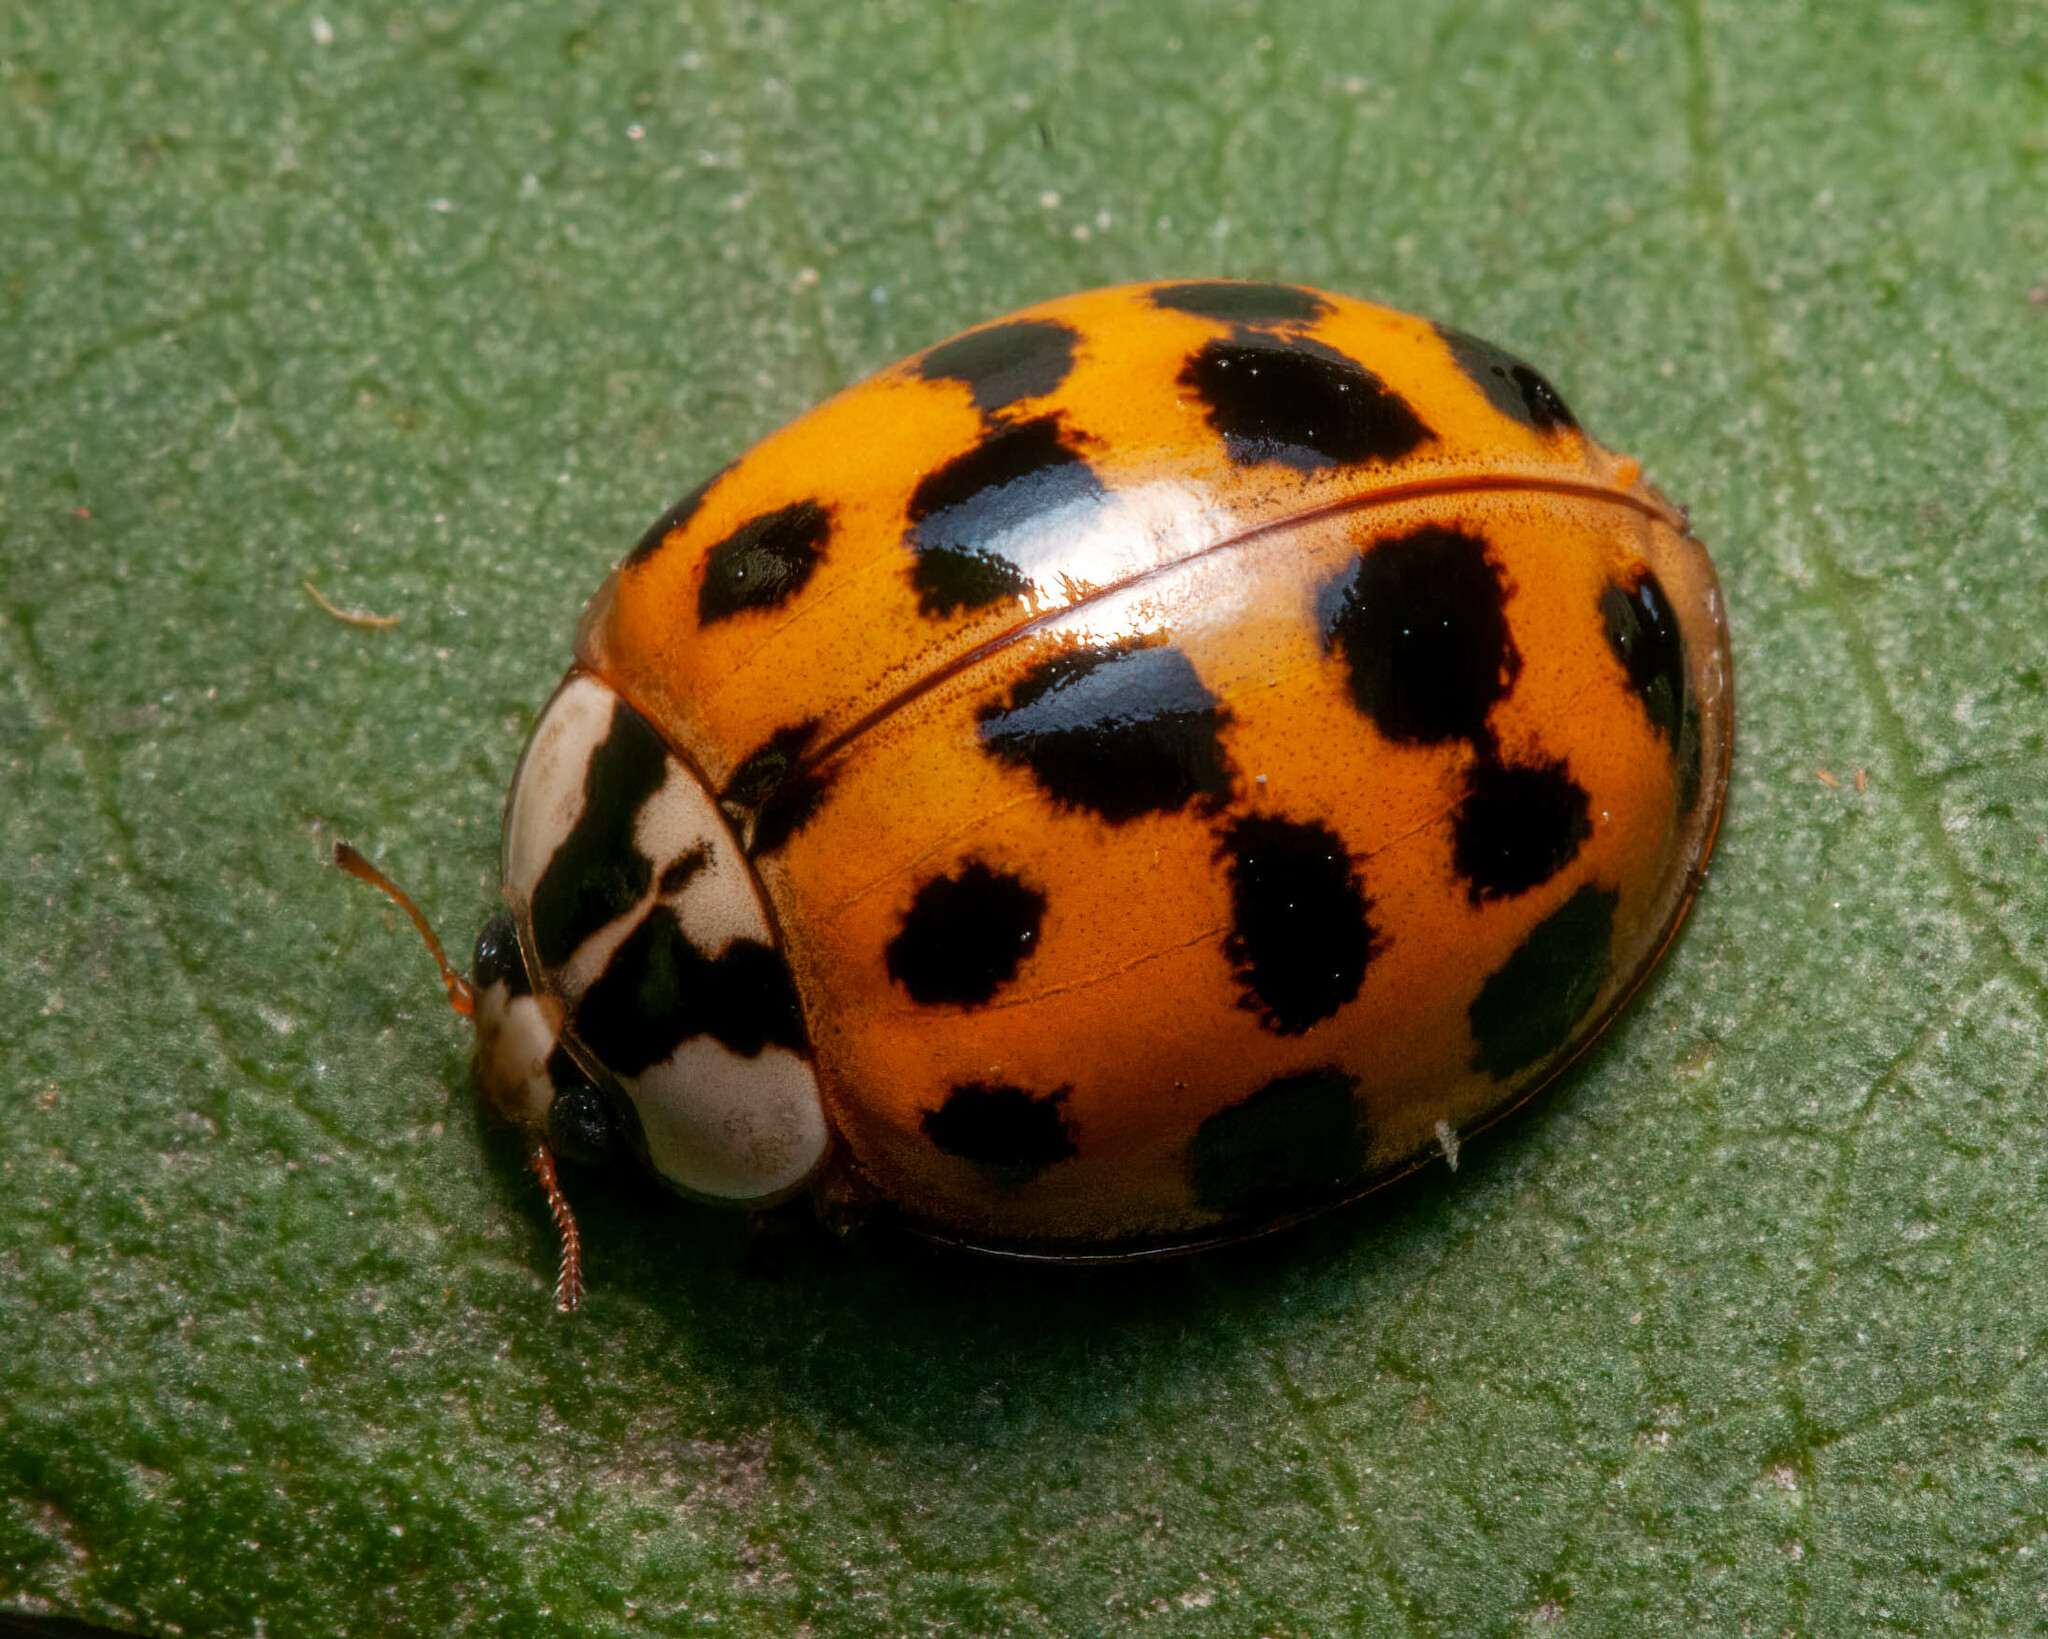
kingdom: Animalia
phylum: Arthropoda
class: Insecta
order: Coleoptera
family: Coccinellidae
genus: Harmonia
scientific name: Harmonia axyridis
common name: Harlequin ladybird
